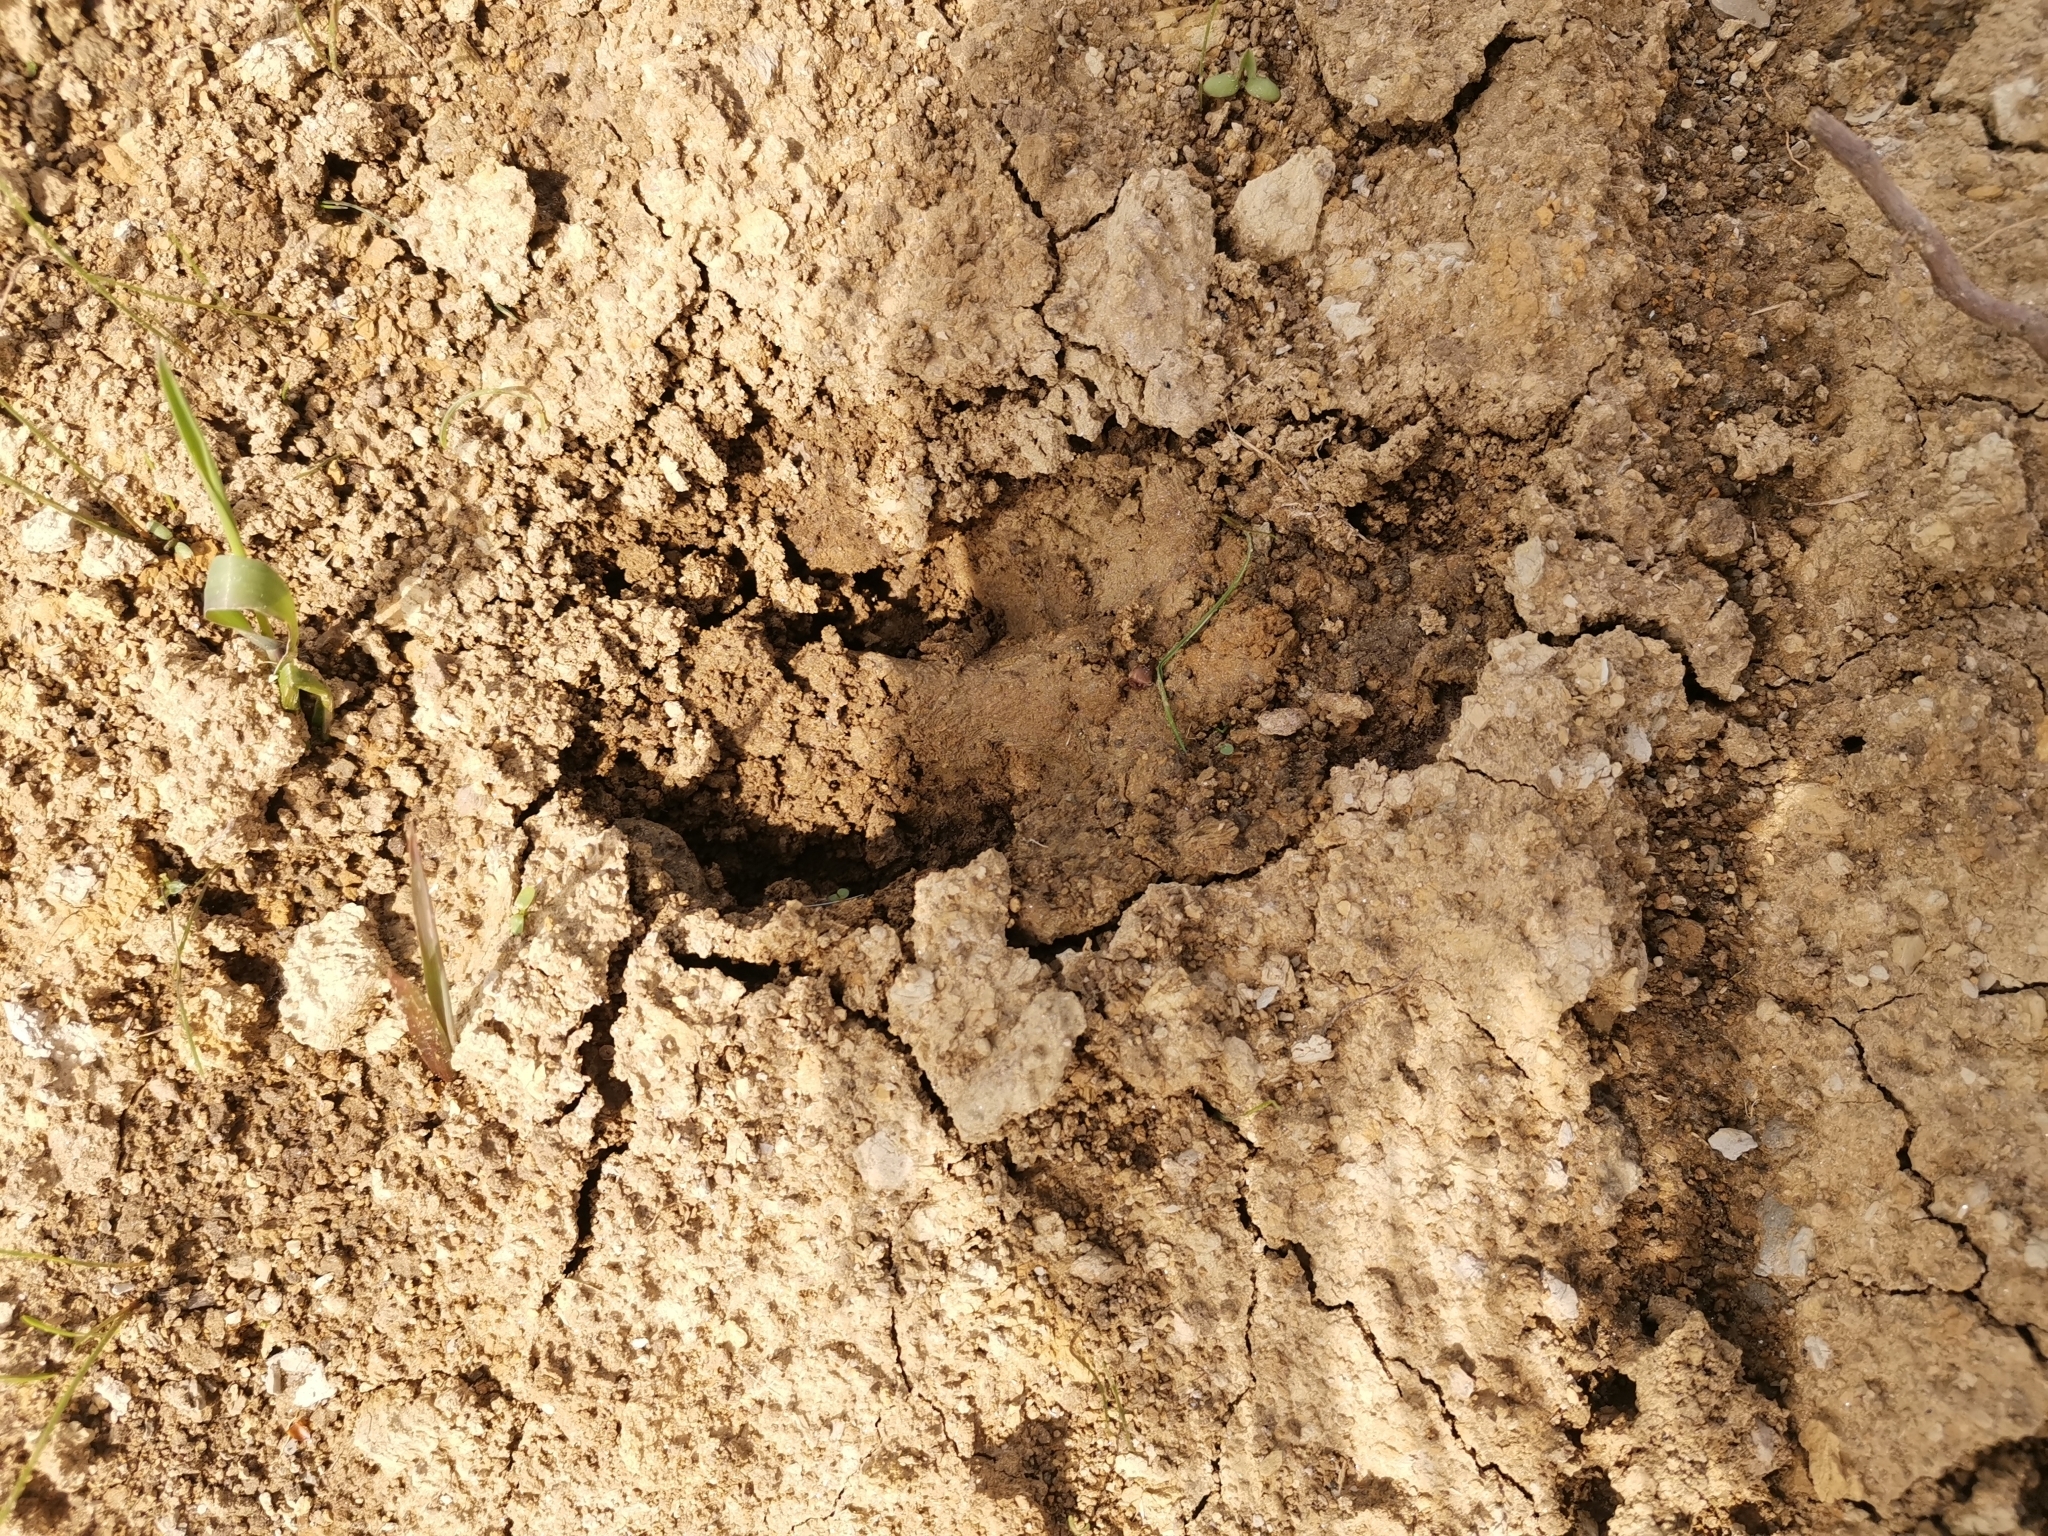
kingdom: Animalia
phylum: Chordata
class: Mammalia
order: Artiodactyla
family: Cervidae
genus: Capreolus
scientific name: Capreolus capreolus
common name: Western roe deer
